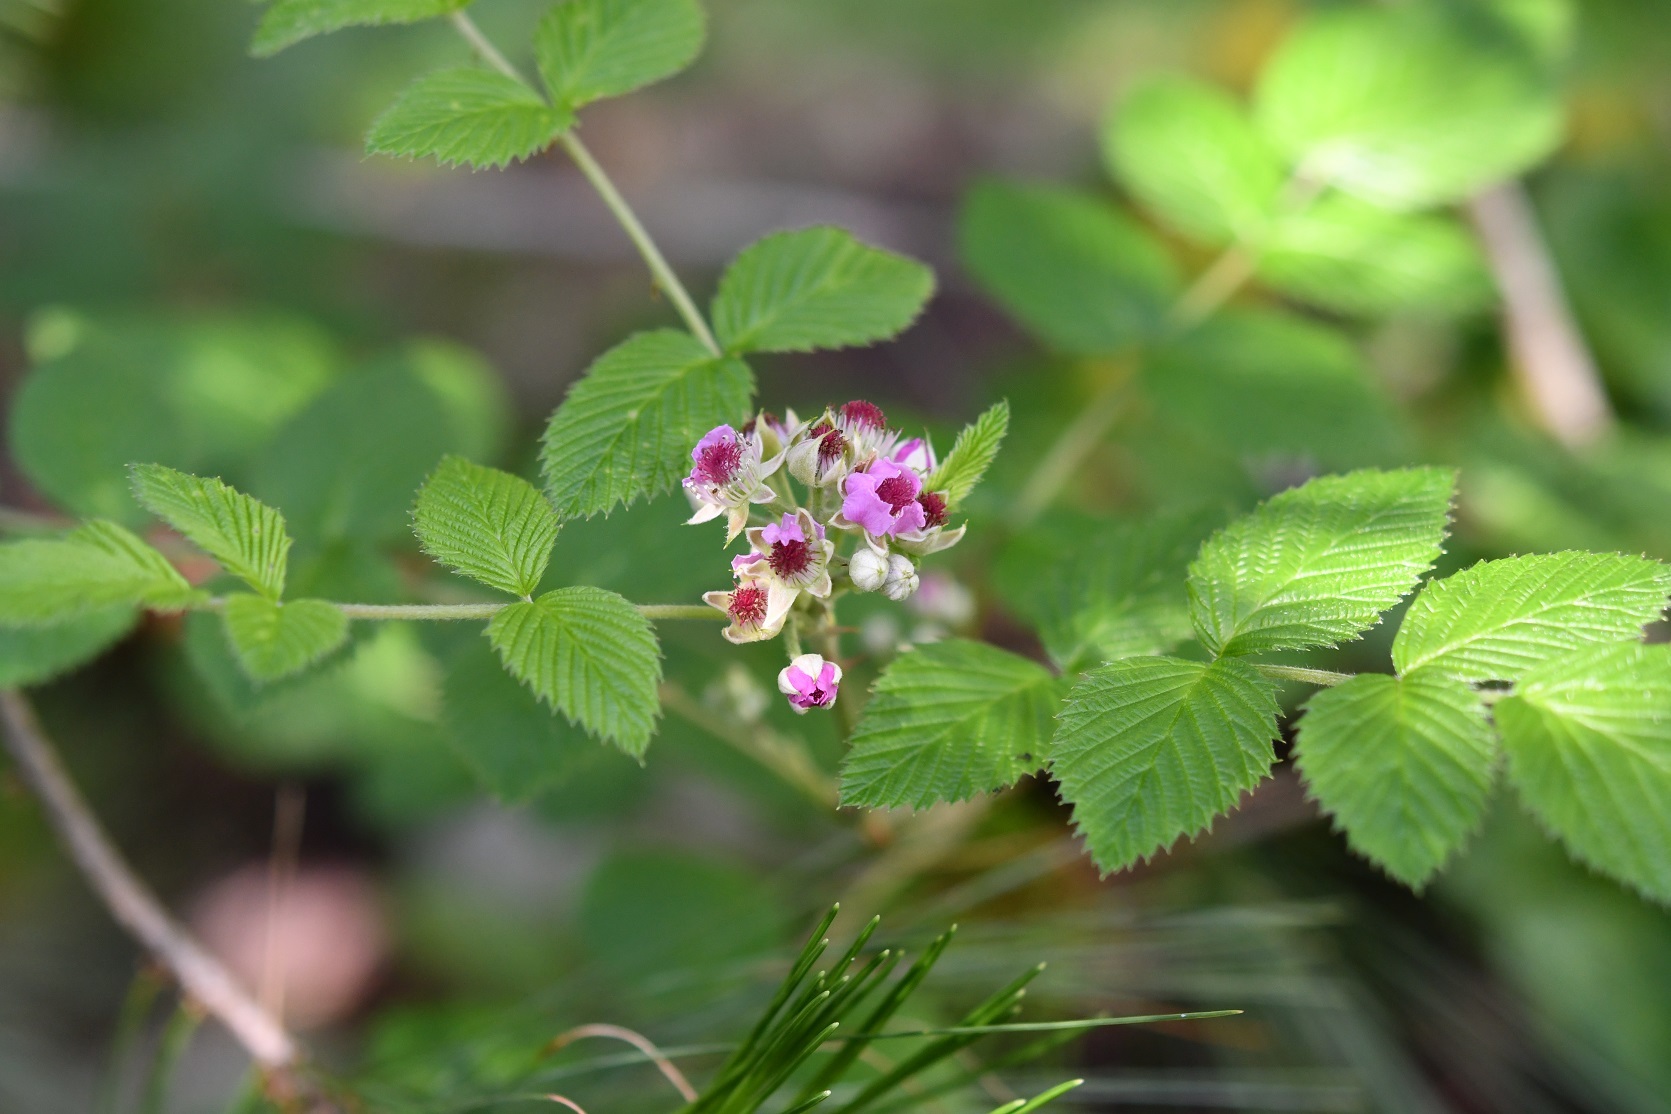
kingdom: Plantae
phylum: Tracheophyta
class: Magnoliopsida
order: Rosales
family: Rosaceae
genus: Rubus
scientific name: Rubus niveus
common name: Snowpeaks raspberry
